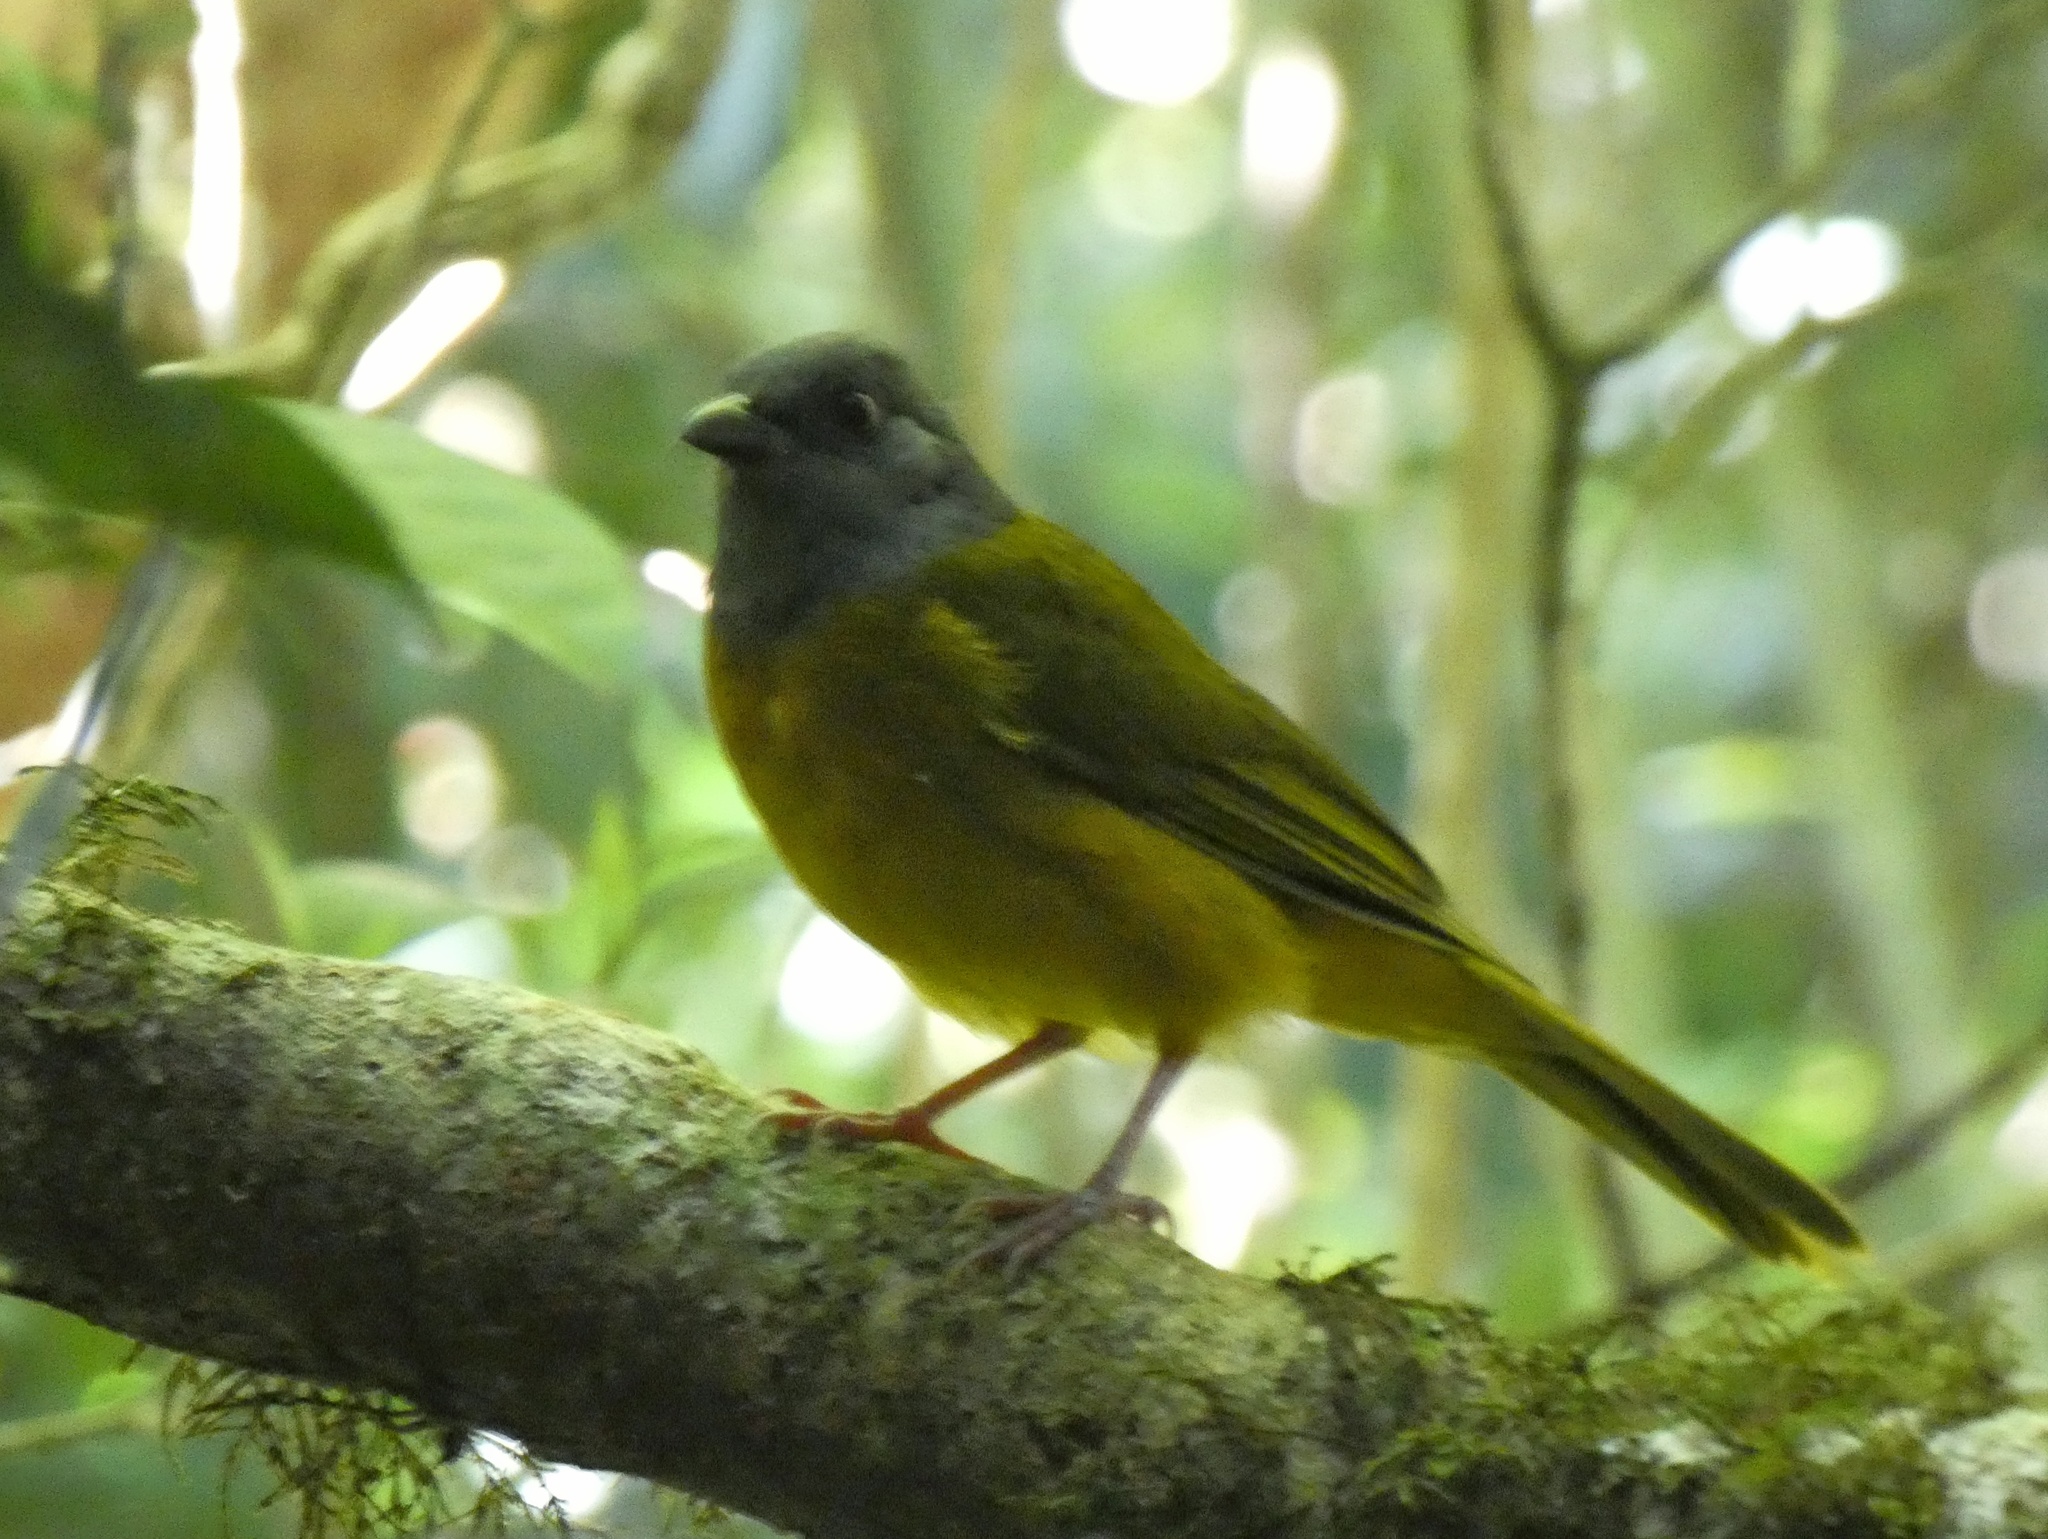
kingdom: Animalia
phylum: Chordata
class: Aves
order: Passeriformes
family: Thraupidae
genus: Eucometis
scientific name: Eucometis penicillata
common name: Grey-headed tanager
